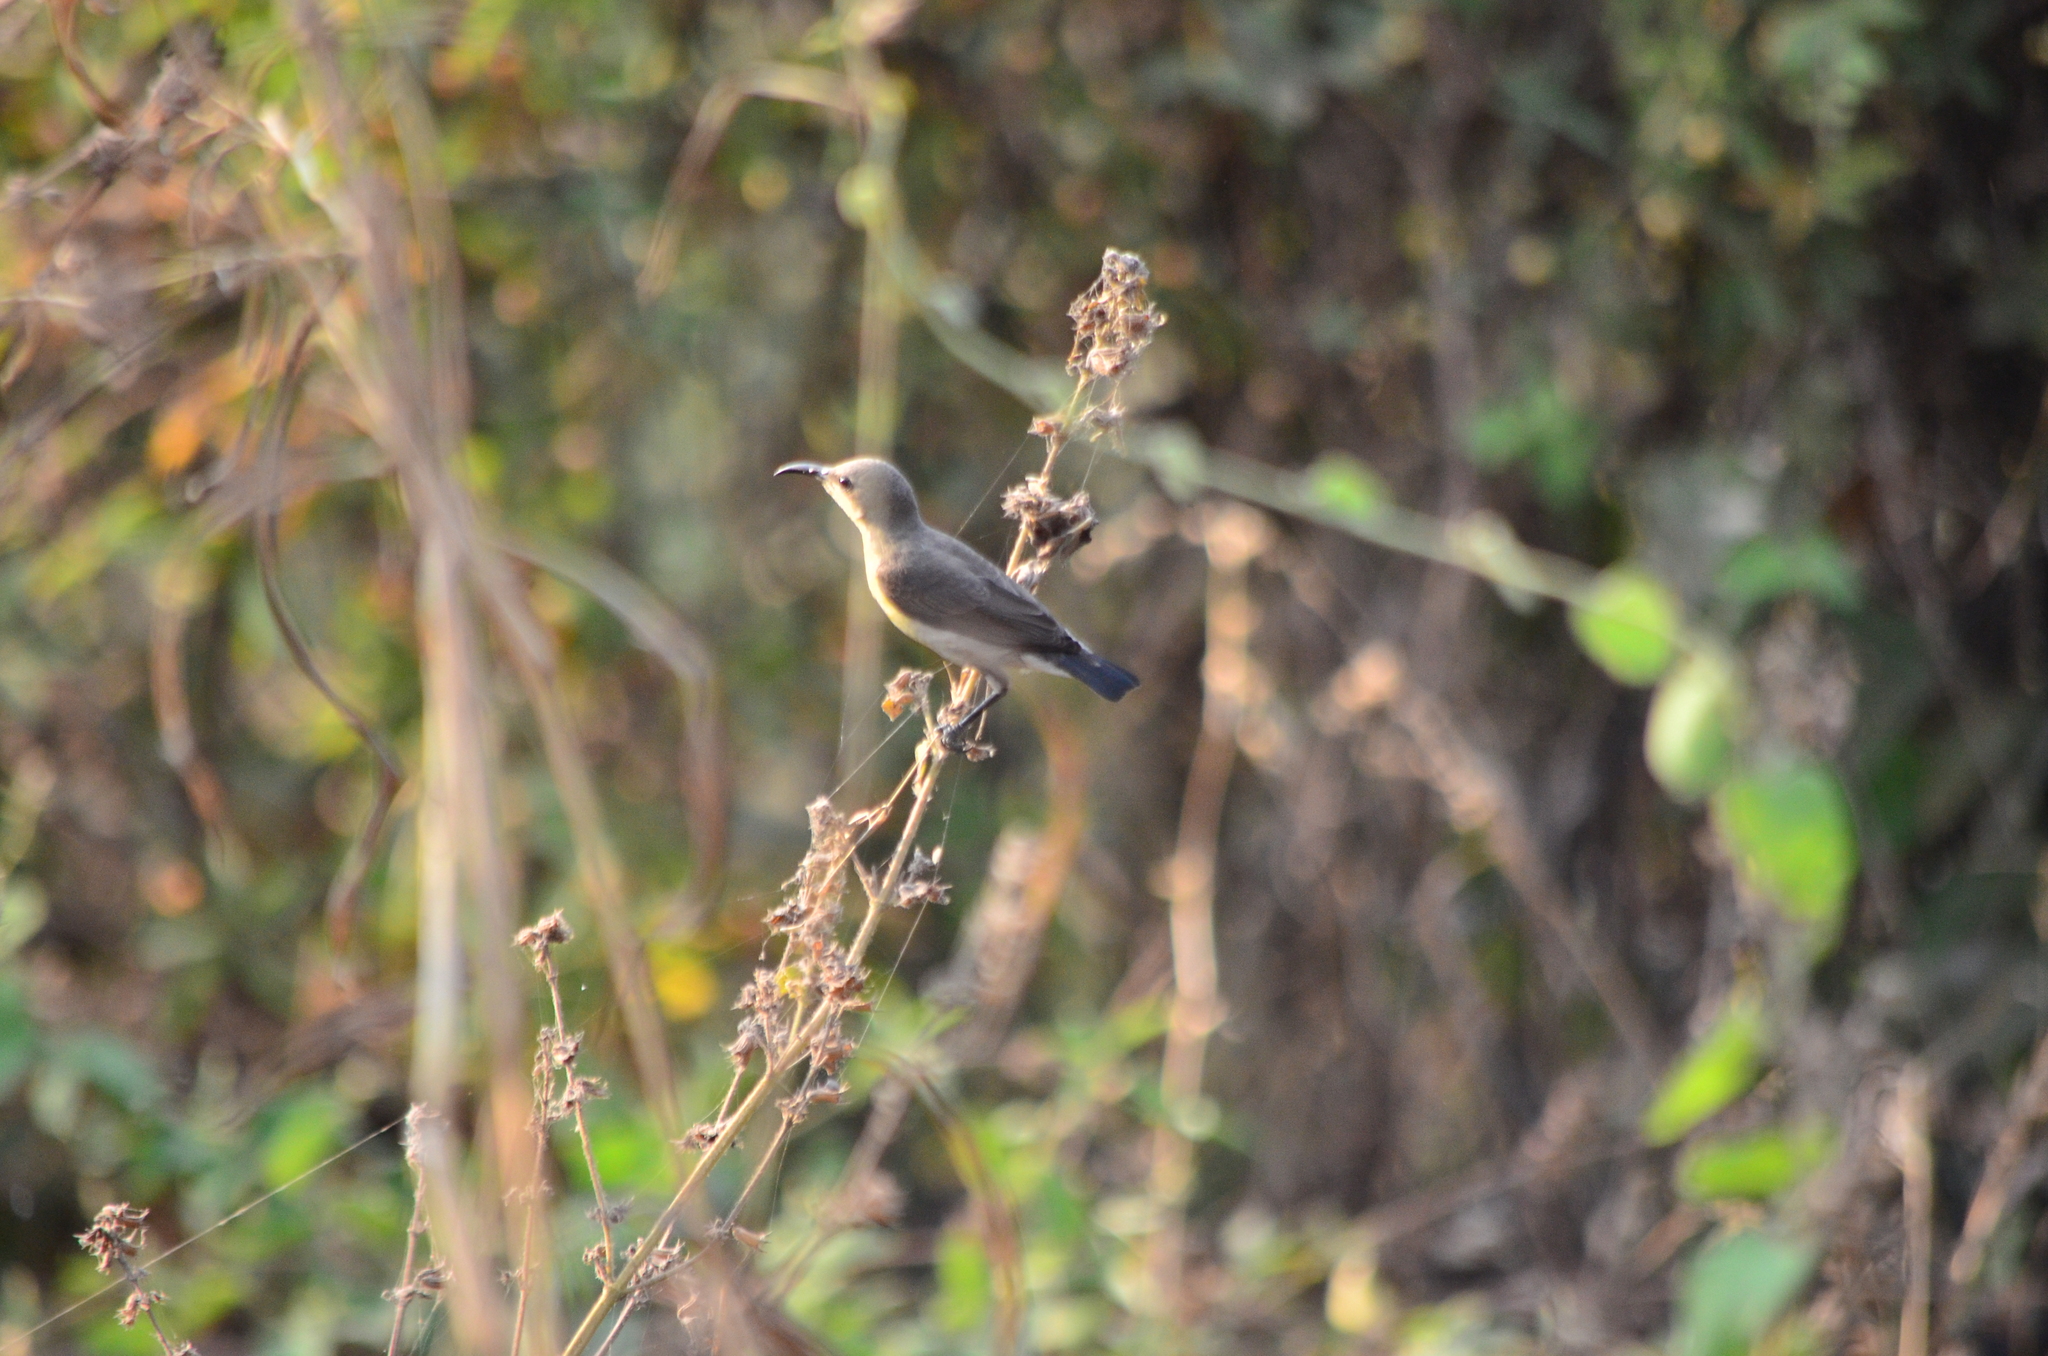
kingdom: Animalia
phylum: Chordata
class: Aves
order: Passeriformes
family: Nectariniidae
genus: Cinnyris
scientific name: Cinnyris asiaticus
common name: Purple sunbird
